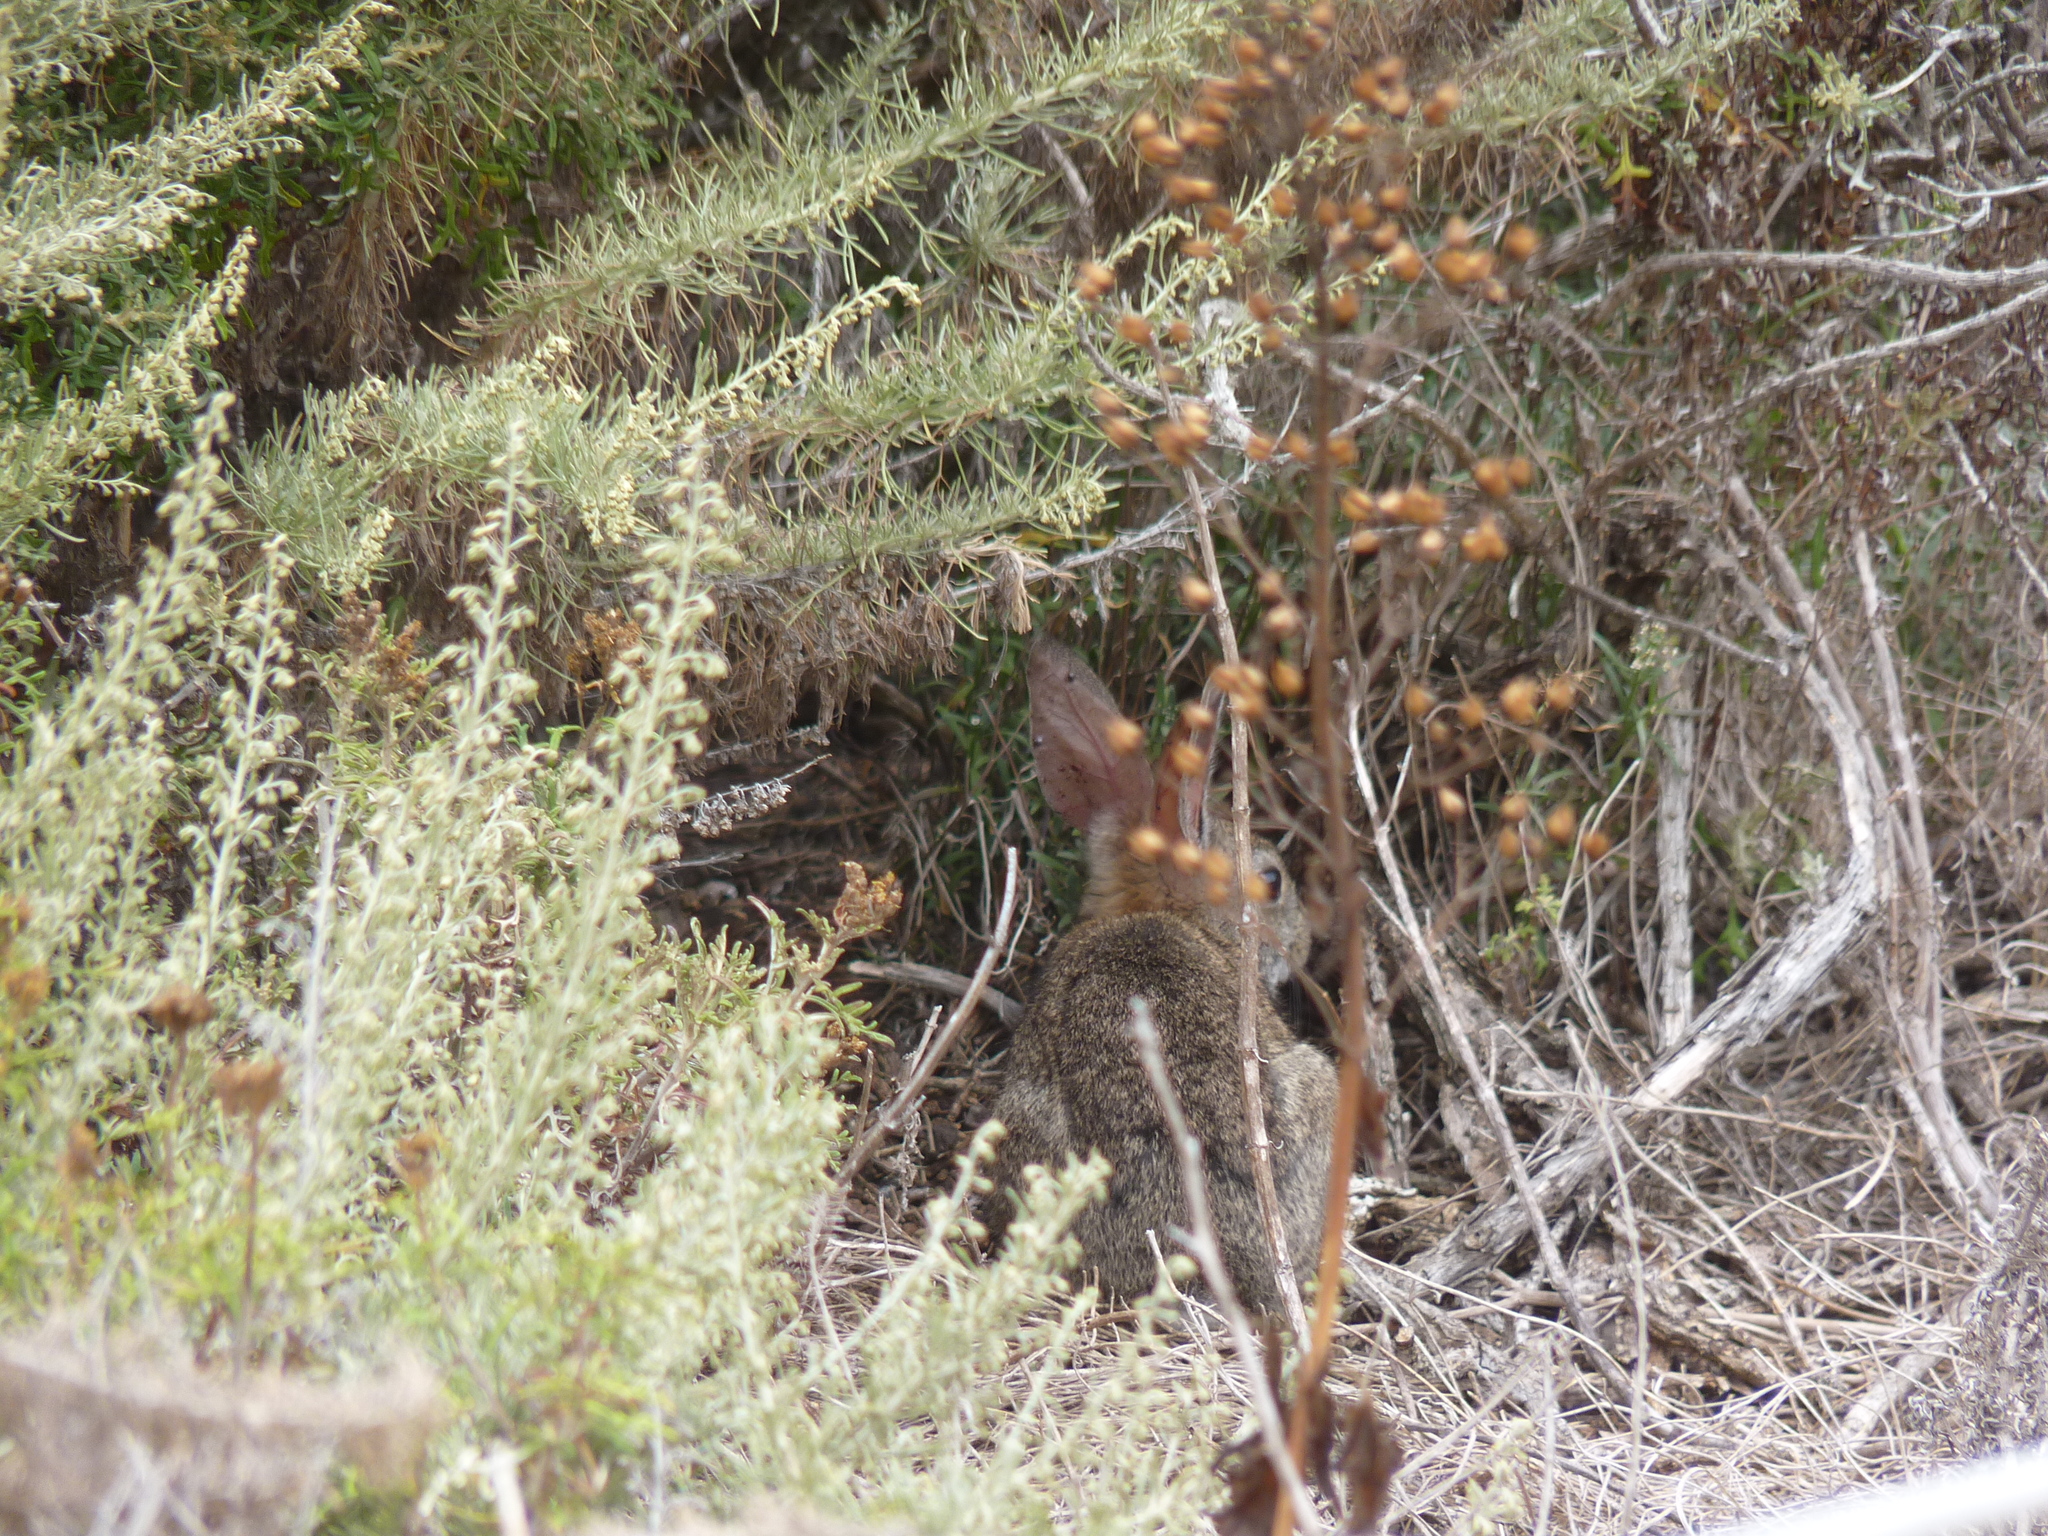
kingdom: Animalia
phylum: Chordata
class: Mammalia
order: Lagomorpha
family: Leporidae
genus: Sylvilagus
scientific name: Sylvilagus bachmani
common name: Brush rabbit
